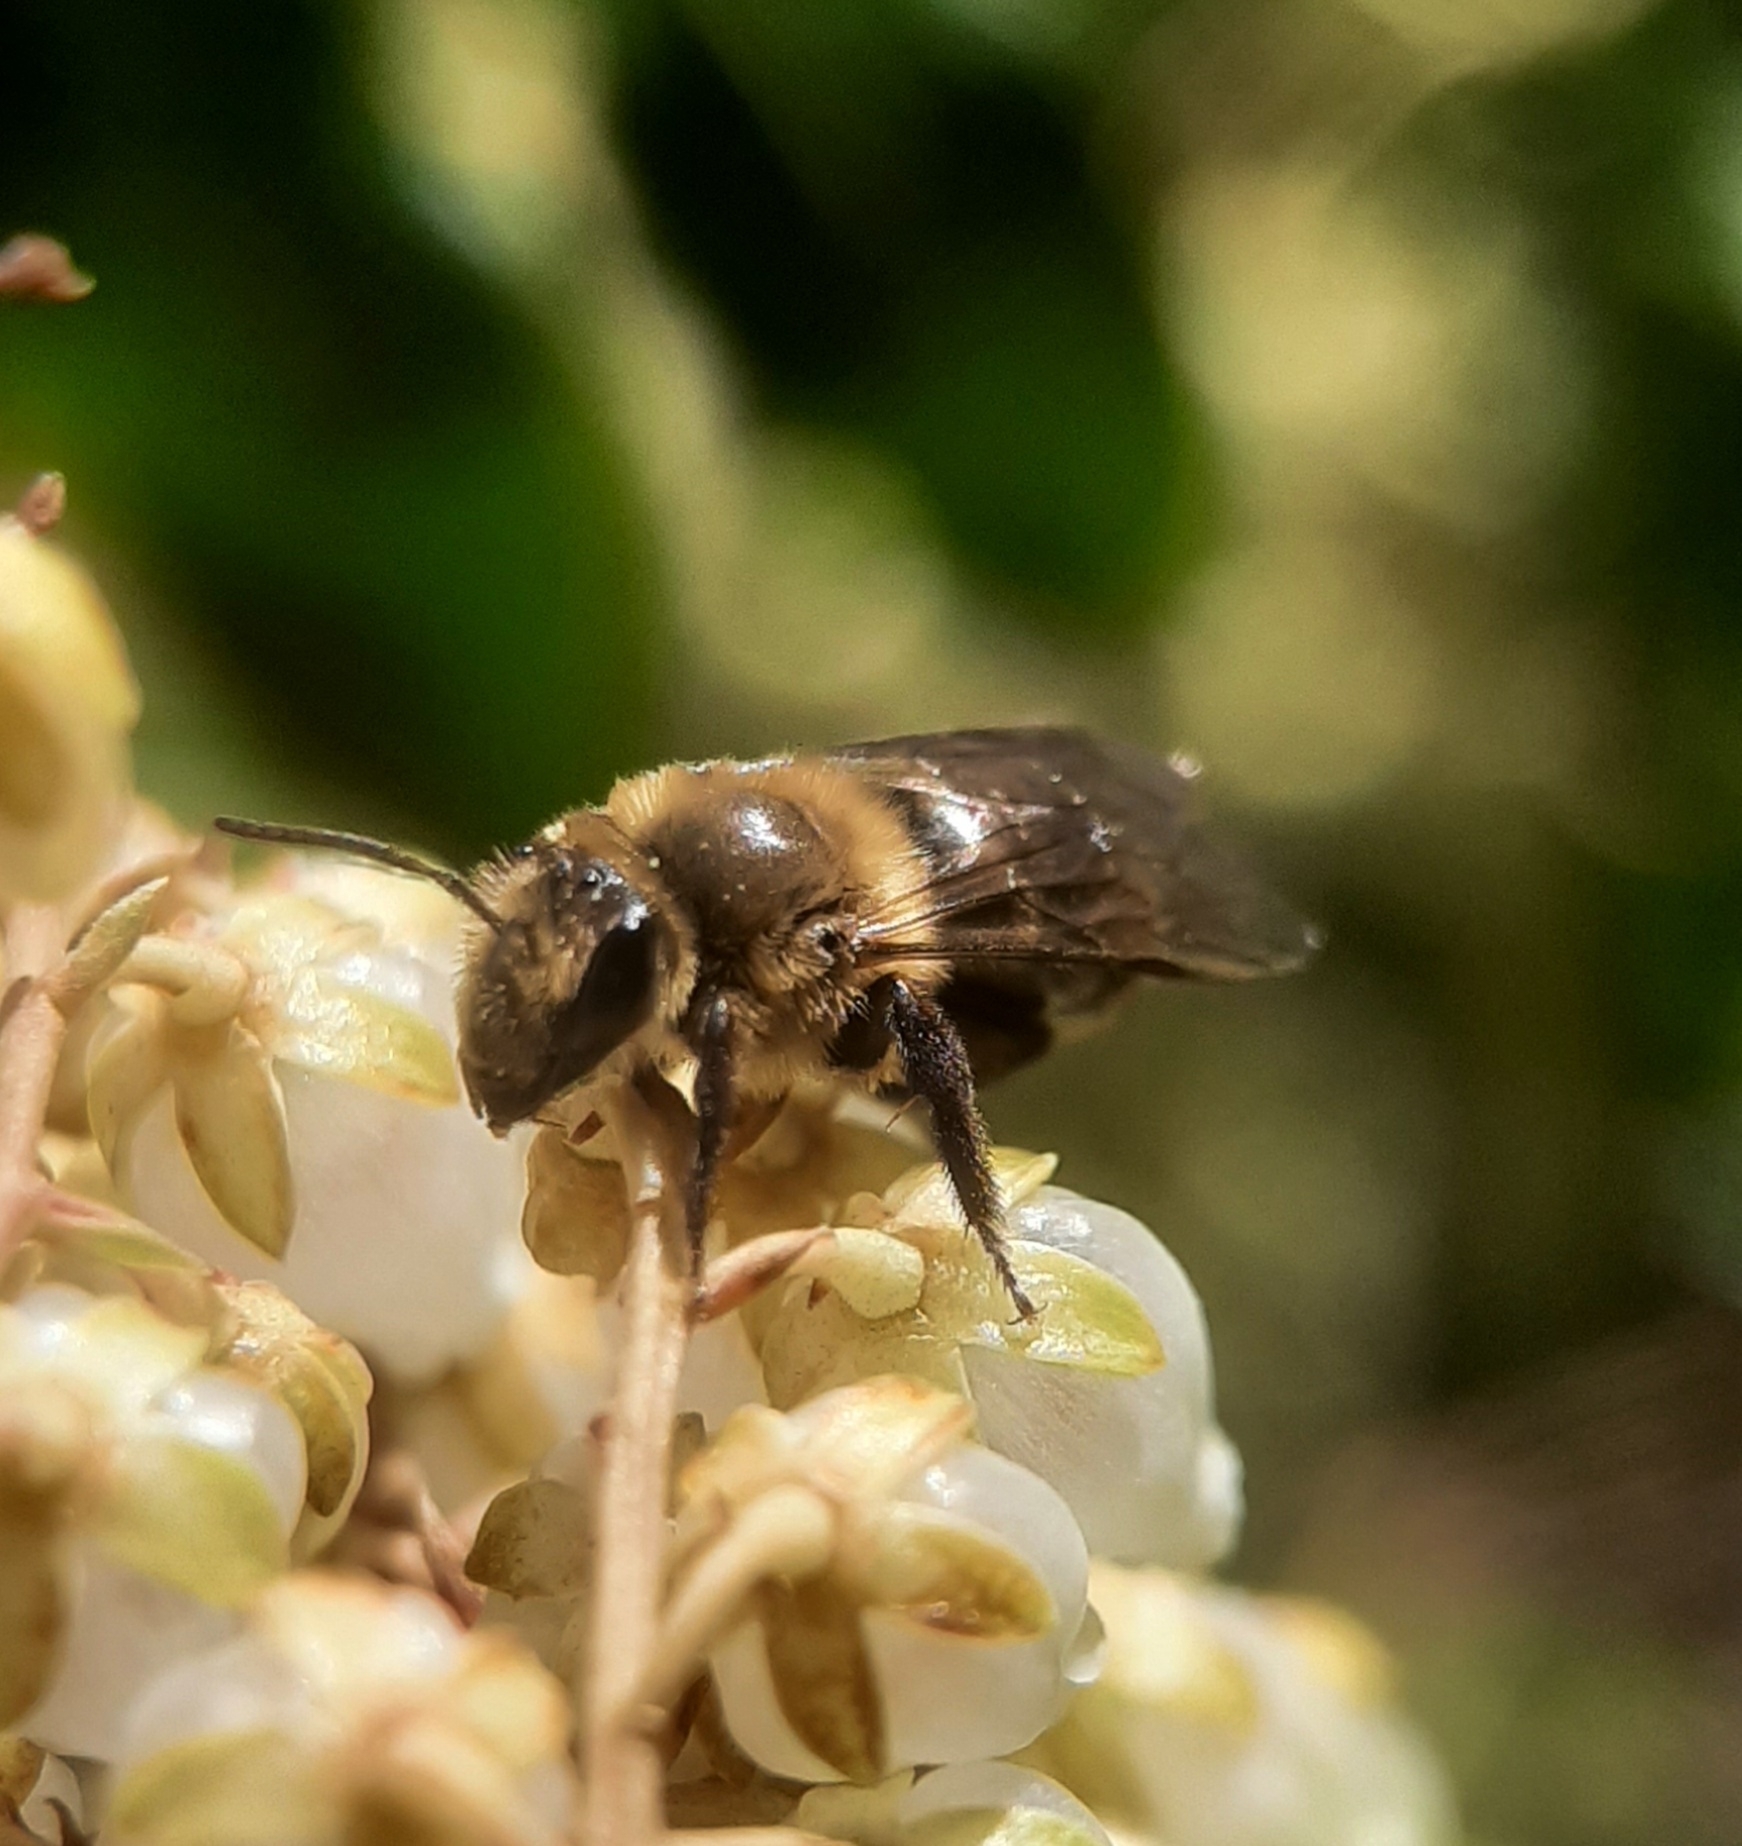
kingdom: Animalia
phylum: Arthropoda
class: Insecta
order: Hymenoptera
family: Andrenidae
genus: Andrena
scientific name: Andrena vicina
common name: Neighborly mining bee
